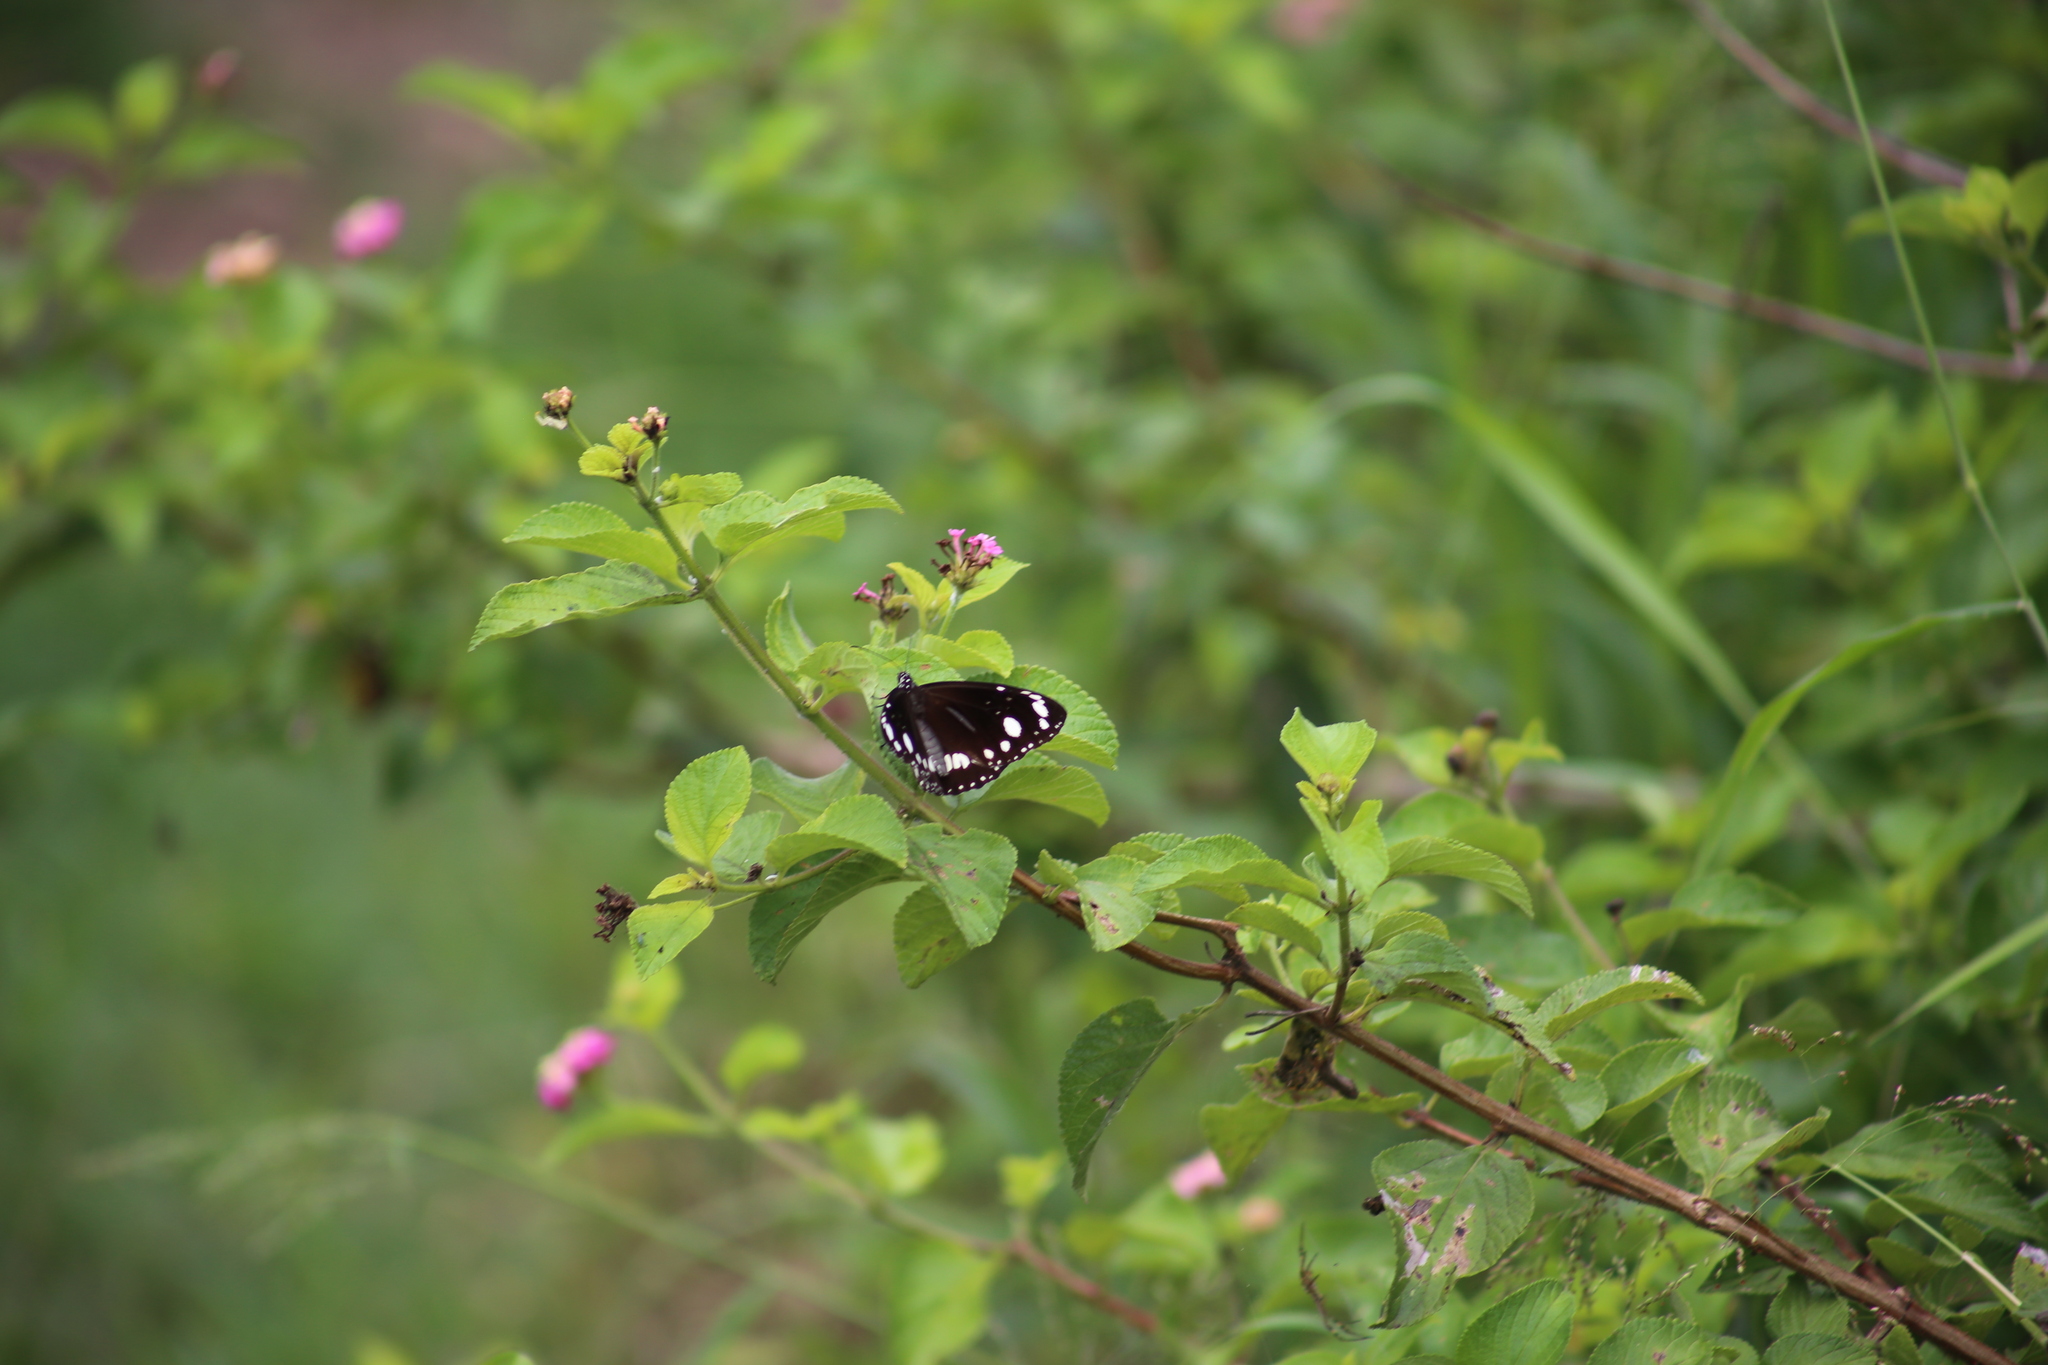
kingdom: Animalia
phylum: Arthropoda
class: Insecta
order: Lepidoptera
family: Nymphalidae
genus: Euploea
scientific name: Euploea core
